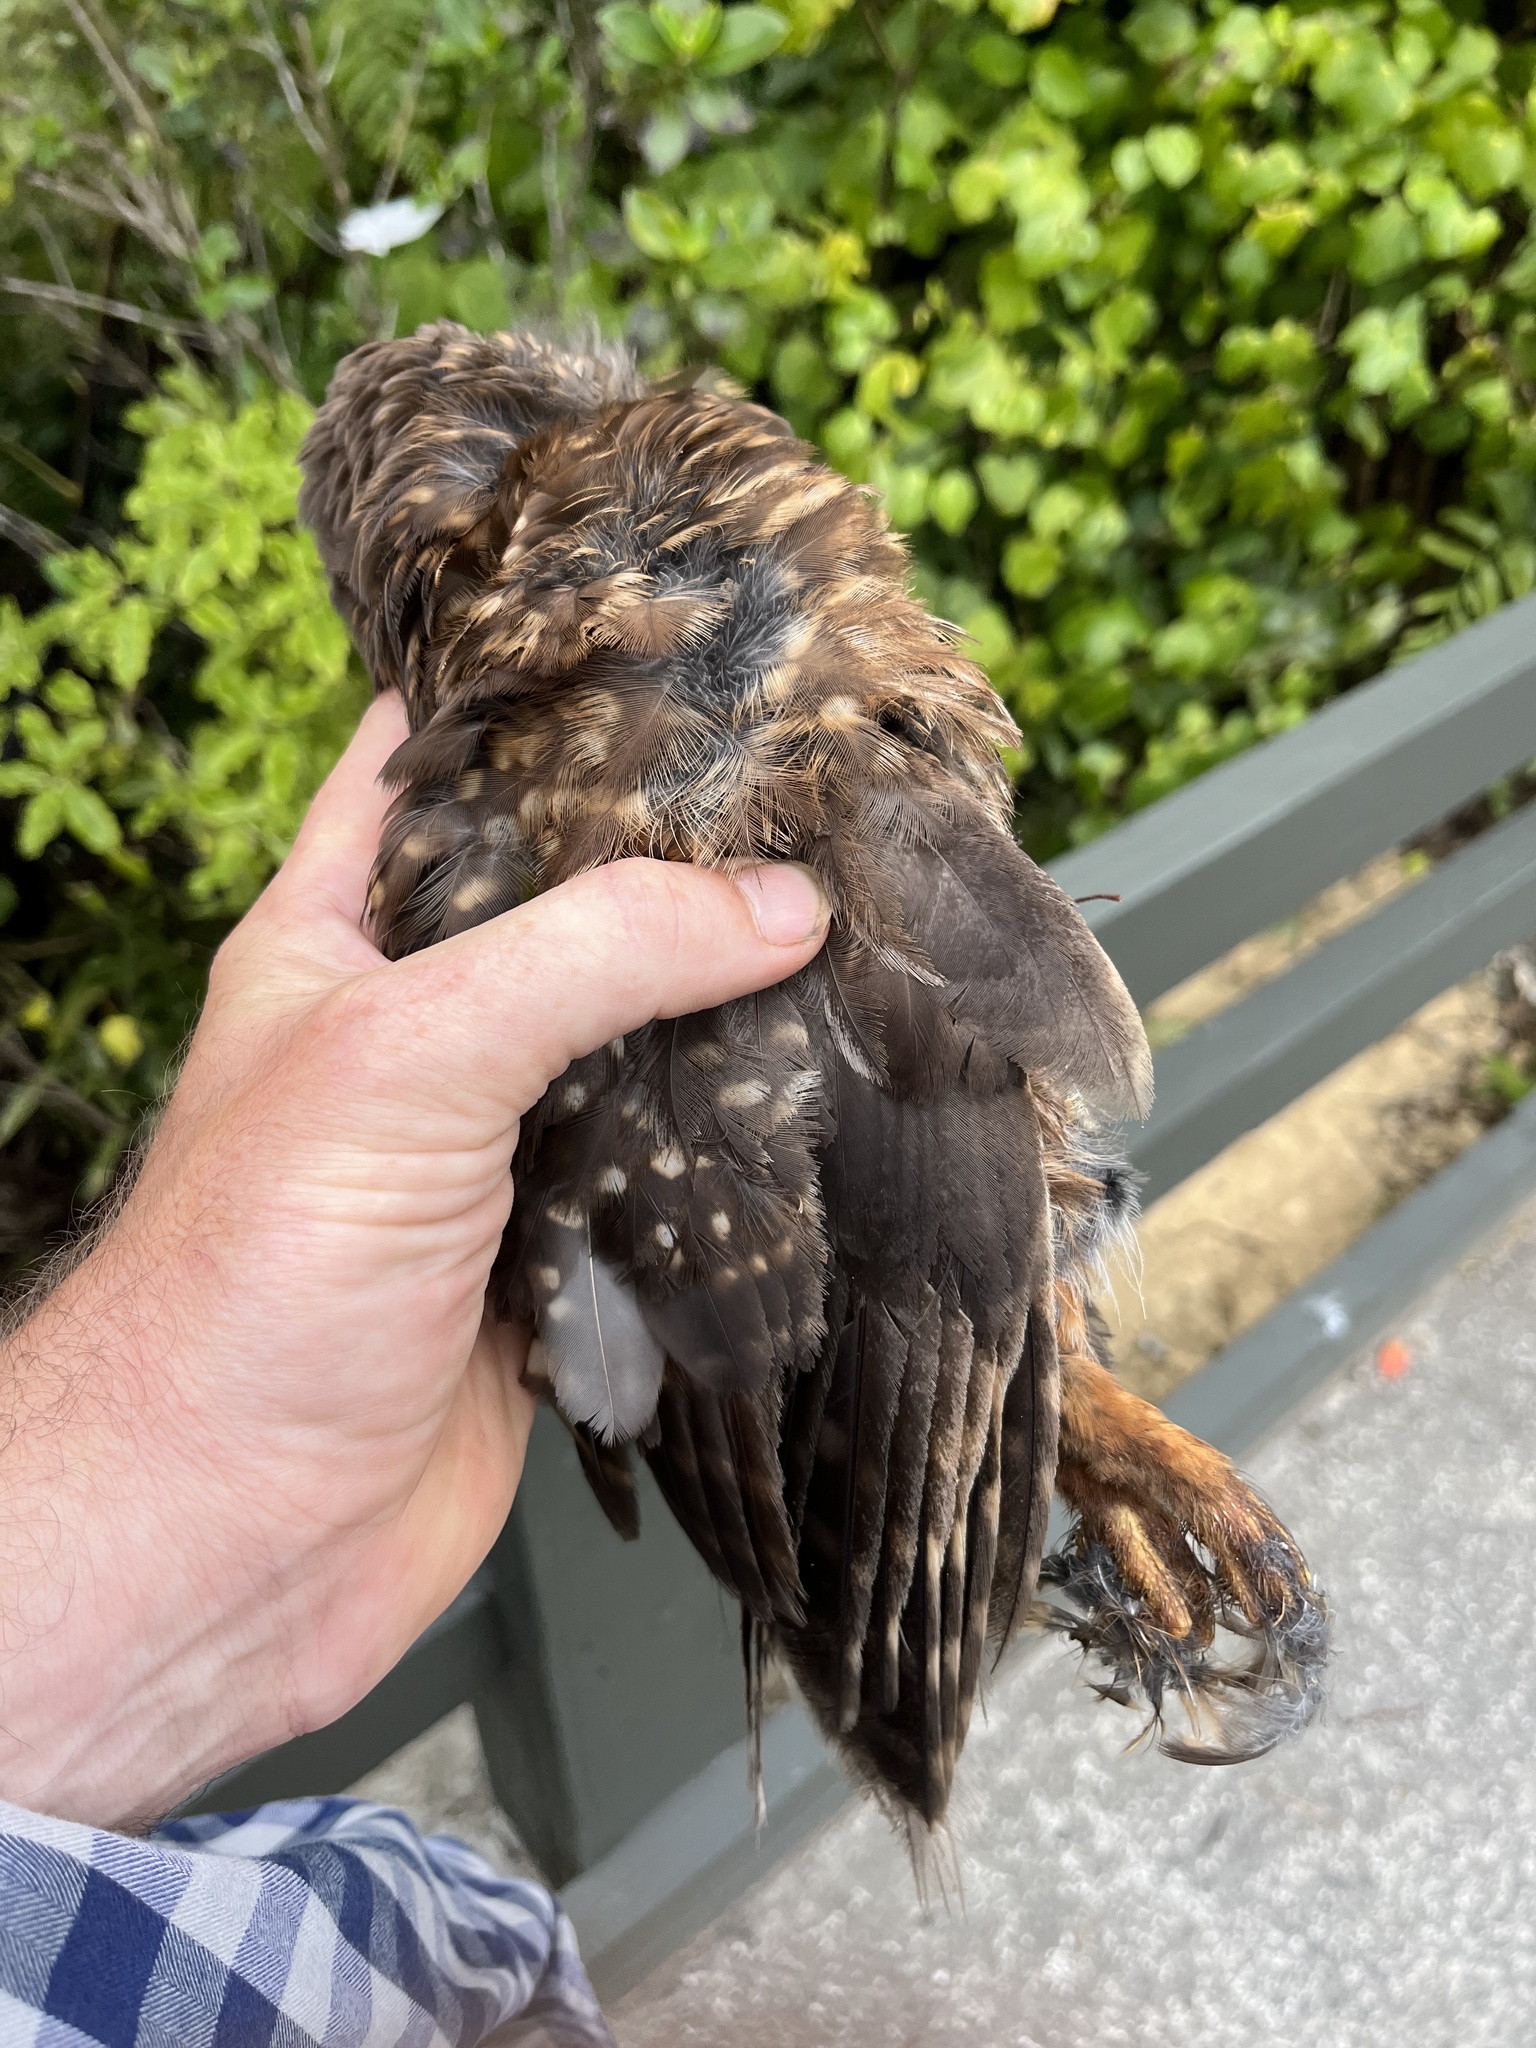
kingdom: Animalia
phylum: Chordata
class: Aves
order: Strigiformes
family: Strigidae
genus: Ninox
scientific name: Ninox novaeseelandiae
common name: Morepork
